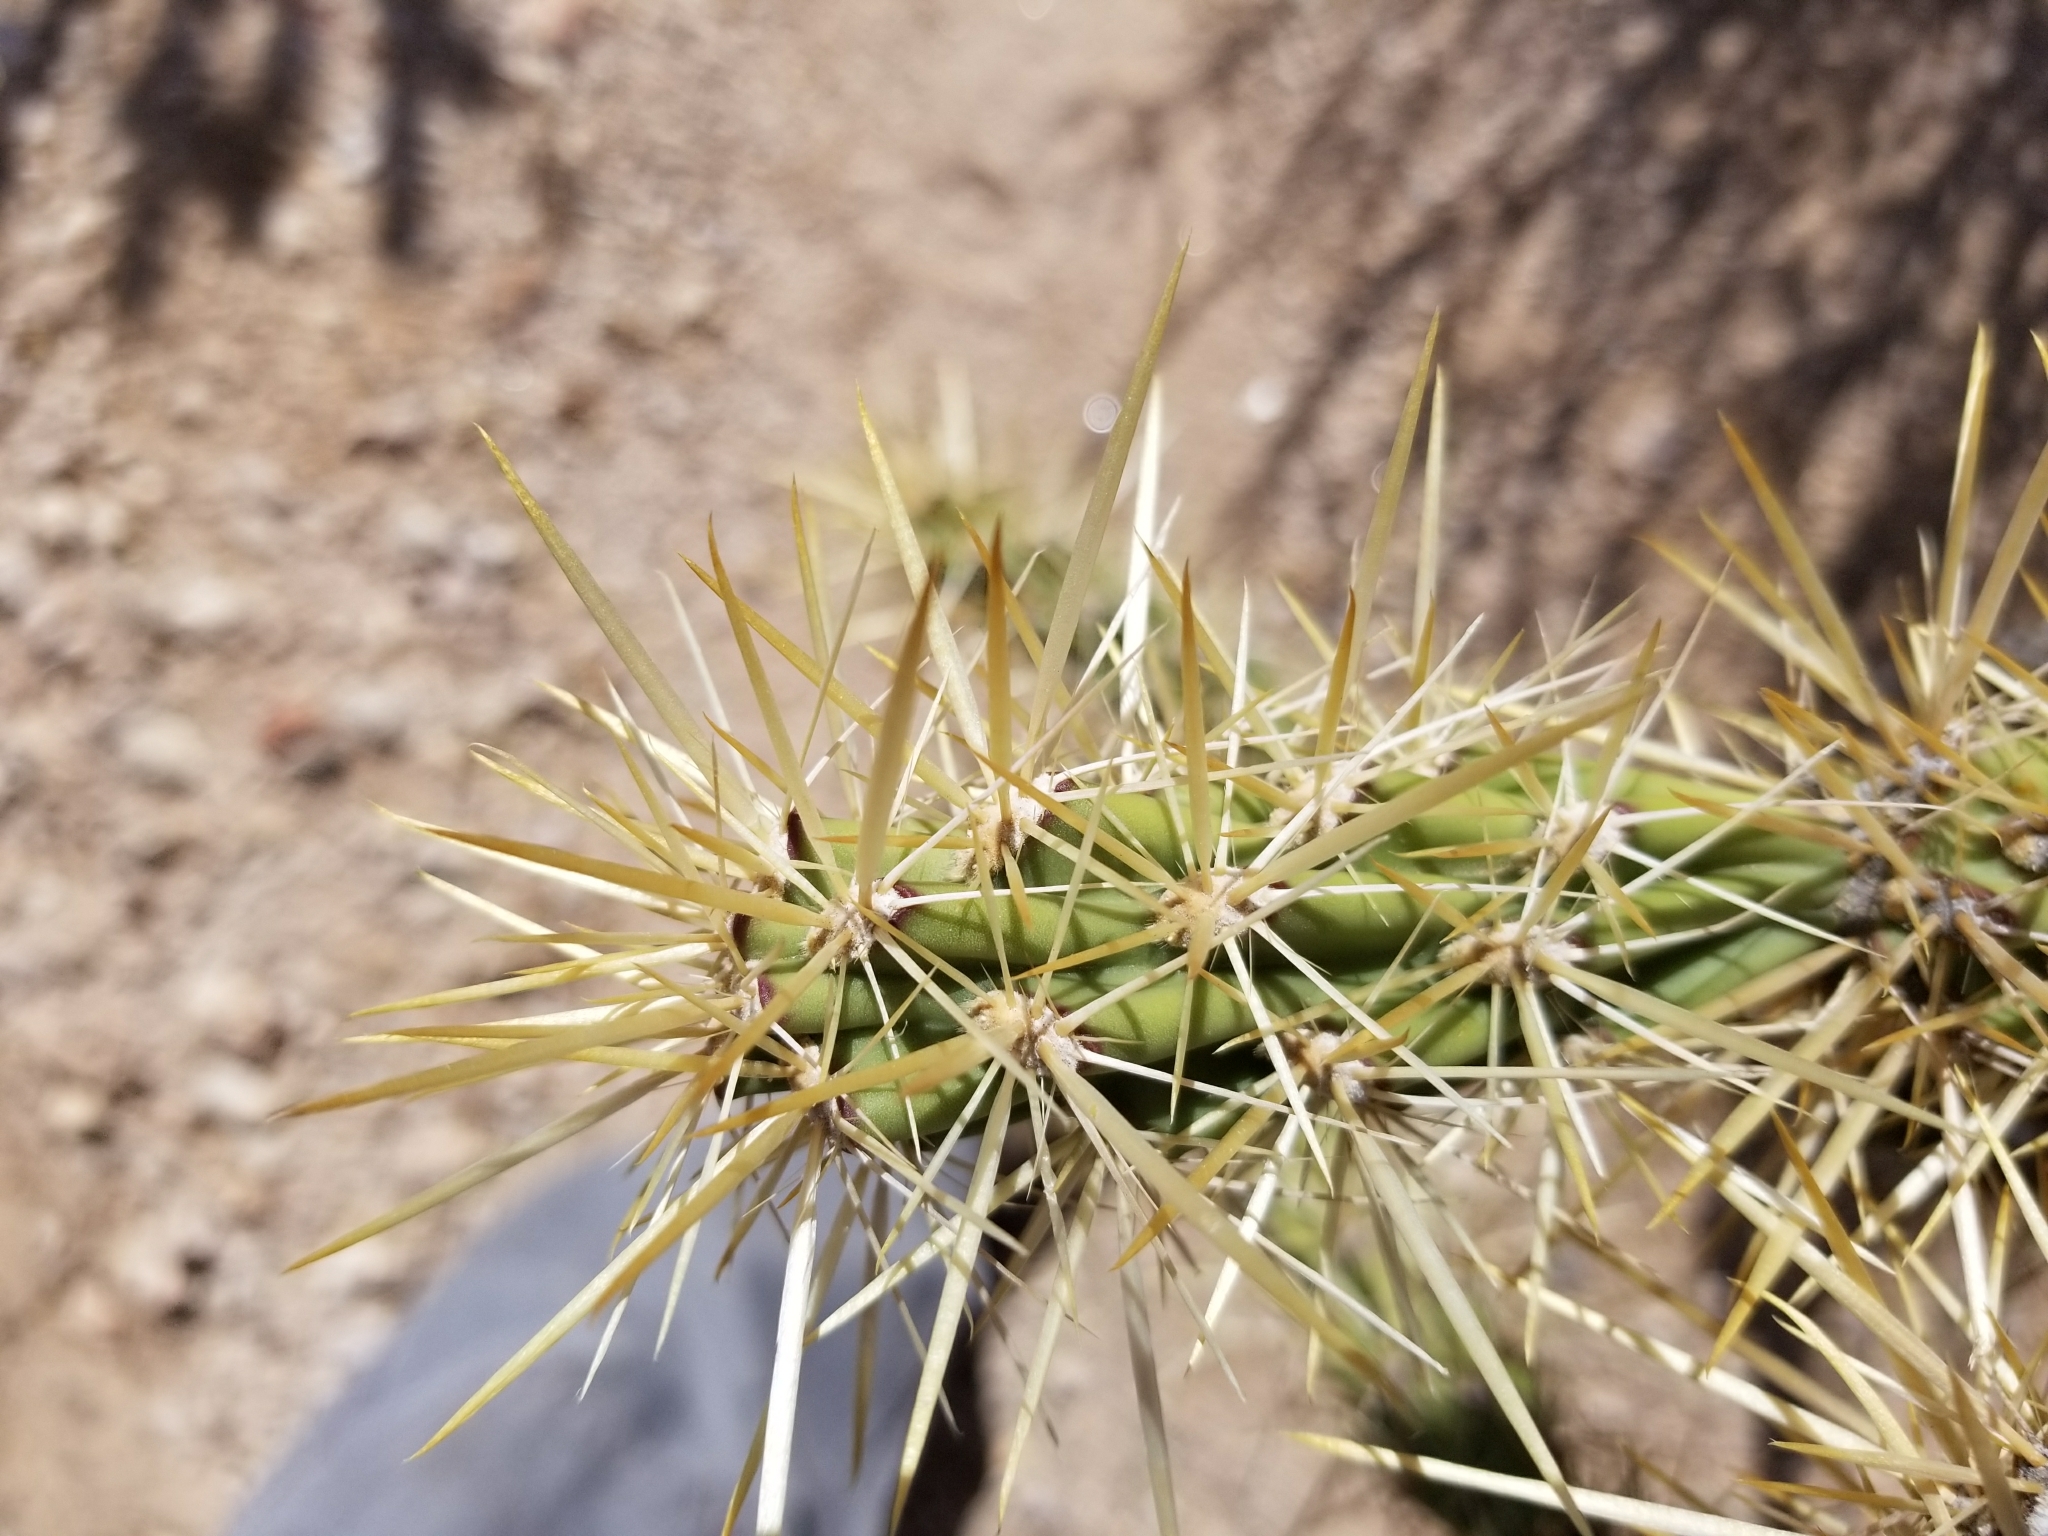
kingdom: Plantae
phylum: Tracheophyta
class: Magnoliopsida
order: Caryophyllales
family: Cactaceae
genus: Cylindropuntia
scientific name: Cylindropuntia acanthocarpa
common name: Buckhorn cholla
